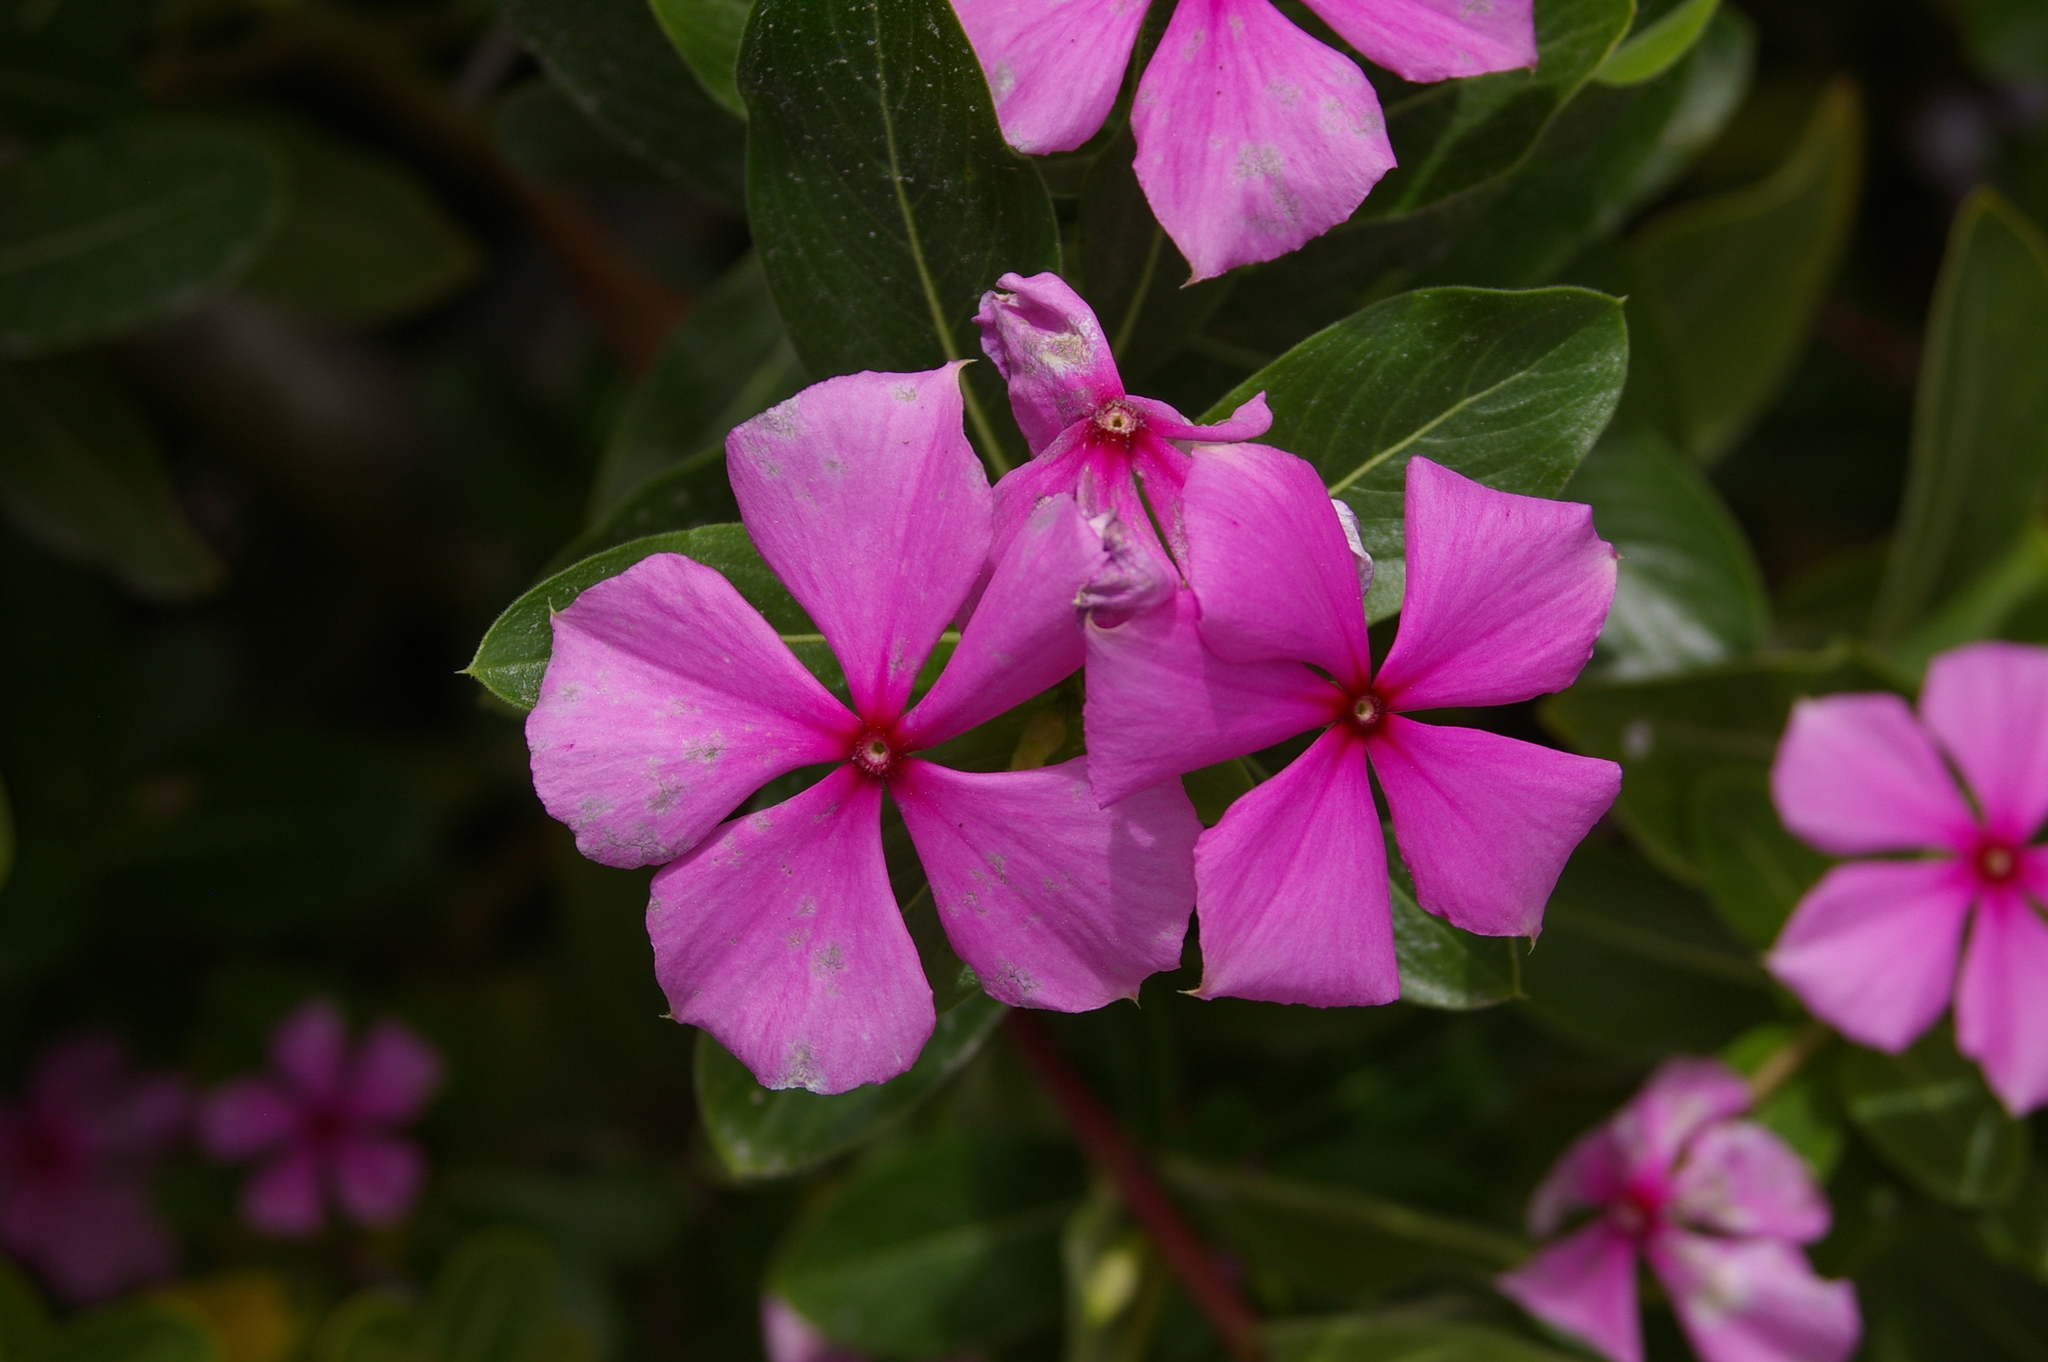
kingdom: Plantae
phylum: Tracheophyta
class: Magnoliopsida
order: Gentianales
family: Apocynaceae
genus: Catharanthus
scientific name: Catharanthus roseus
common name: Madagascar periwinkle
